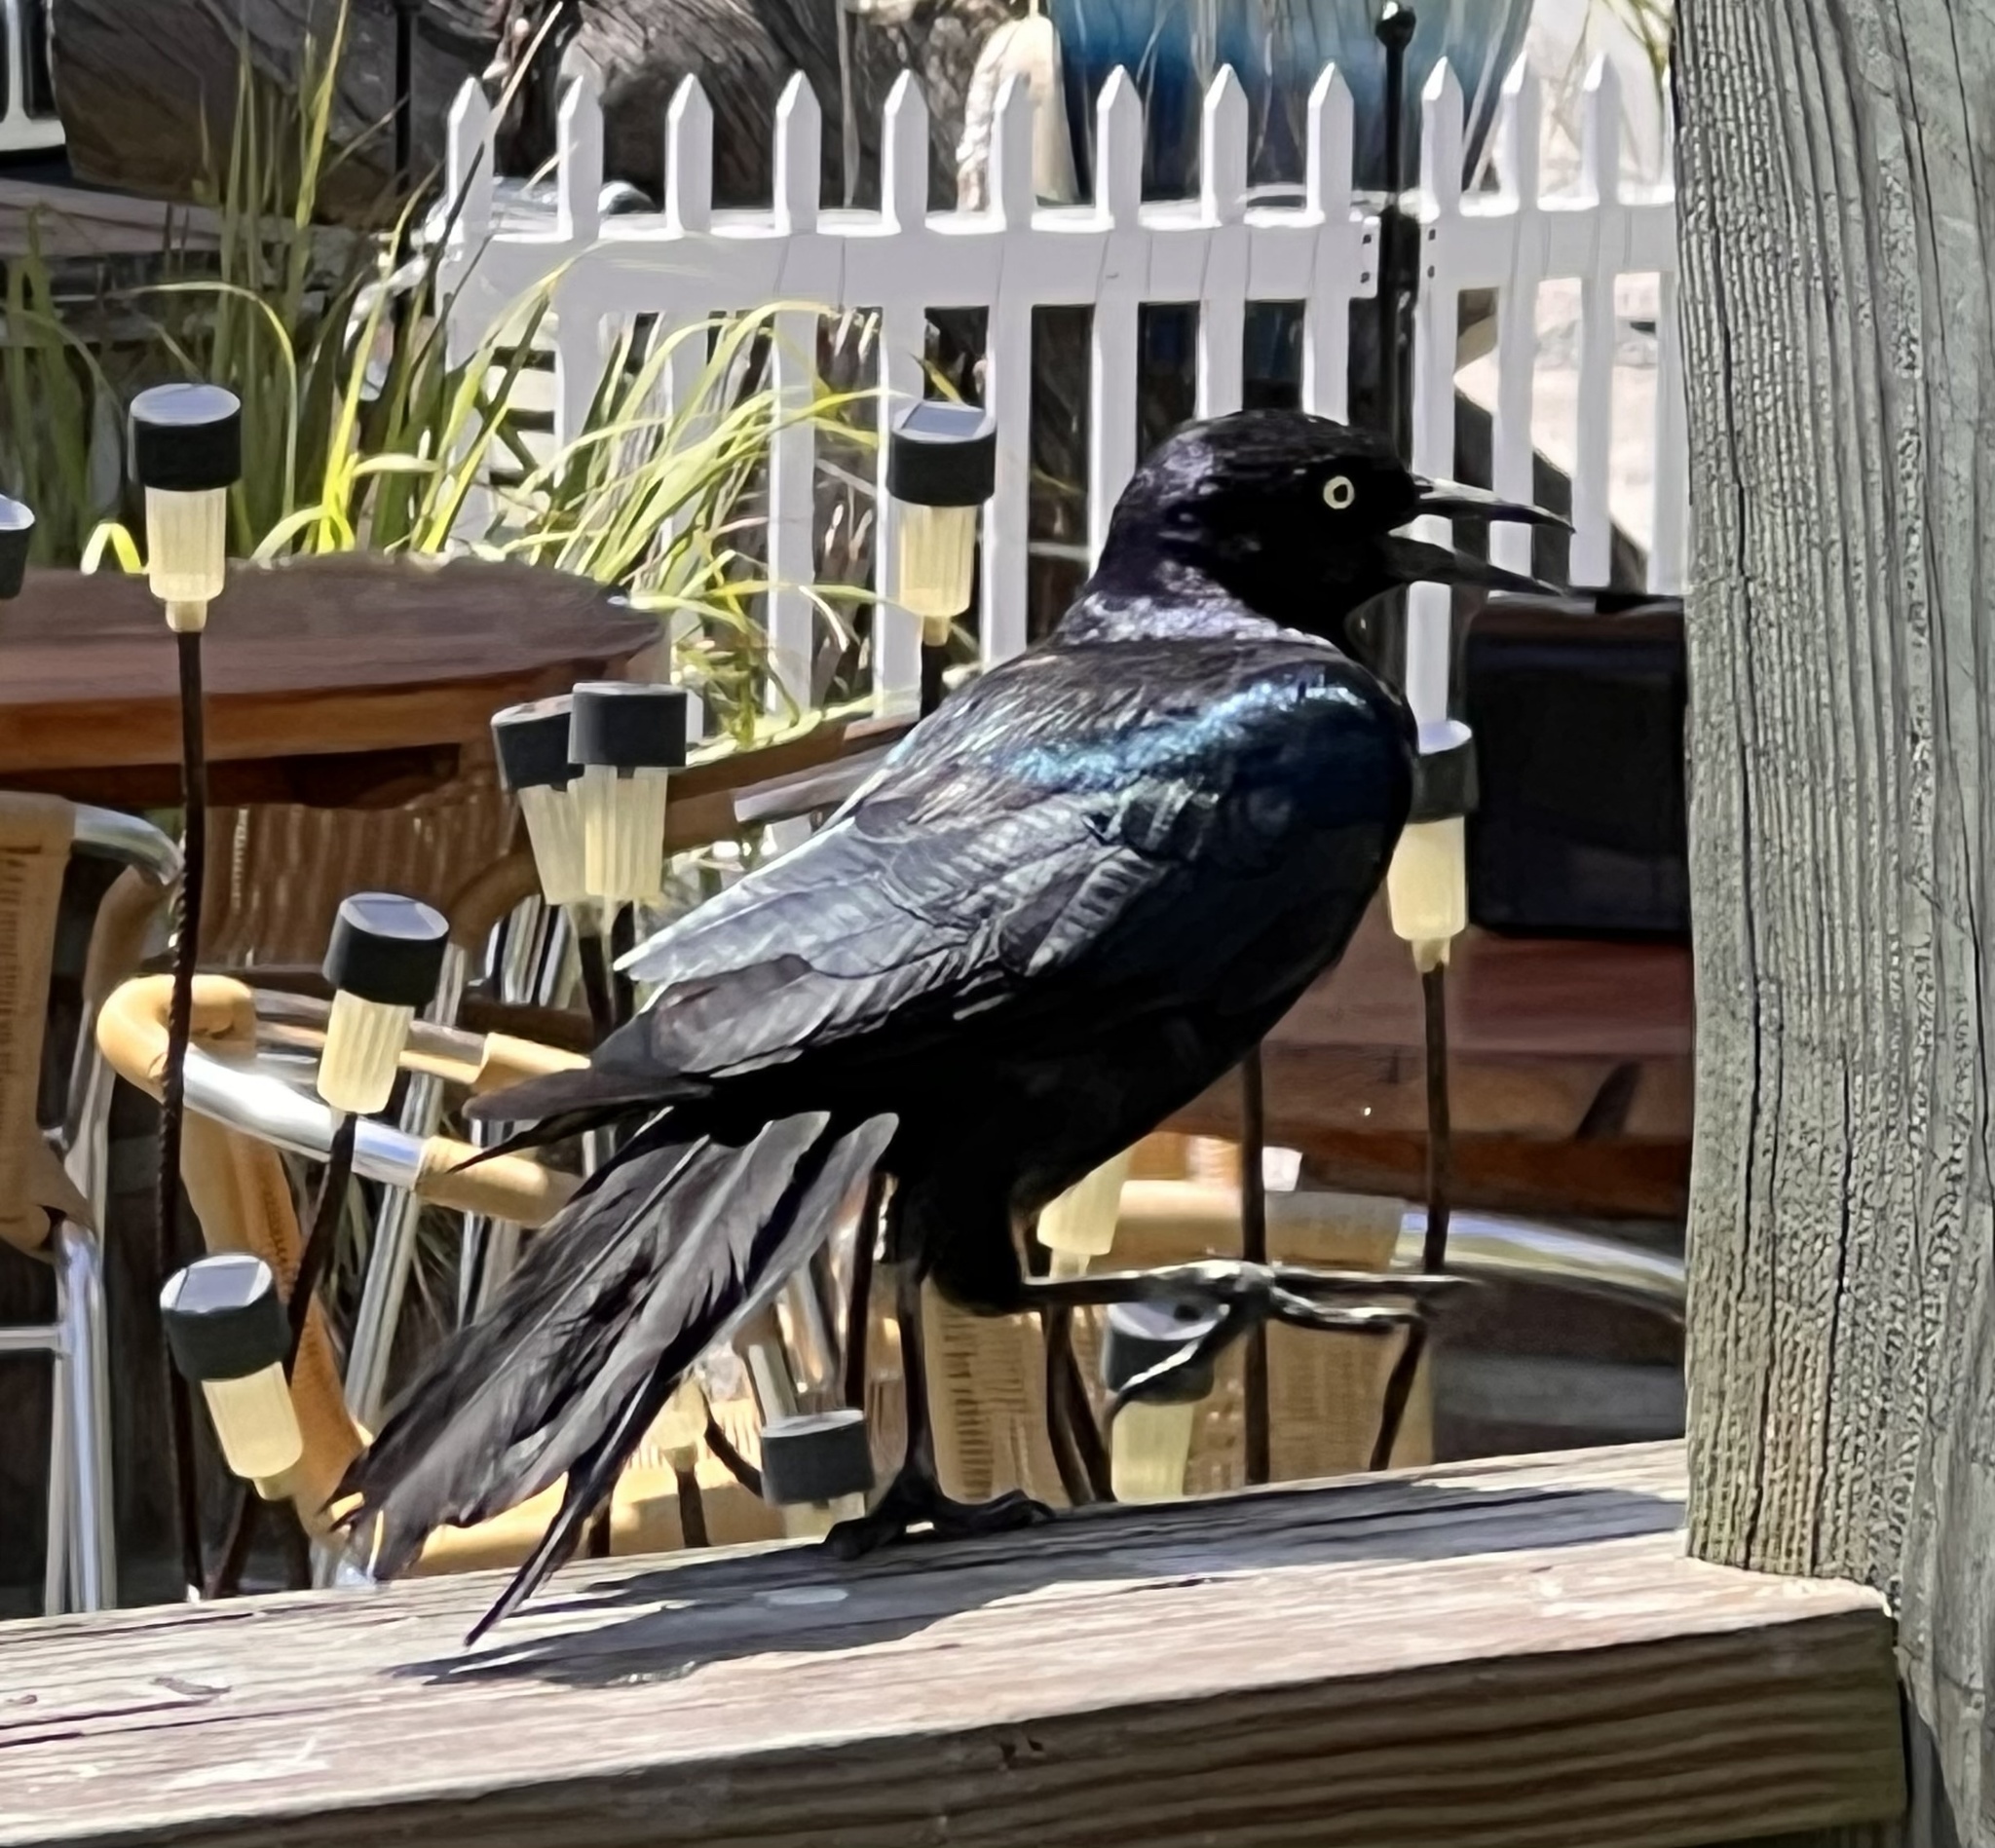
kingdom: Animalia
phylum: Chordata
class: Aves
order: Passeriformes
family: Icteridae
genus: Quiscalus
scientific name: Quiscalus major
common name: Boat-tailed grackle
